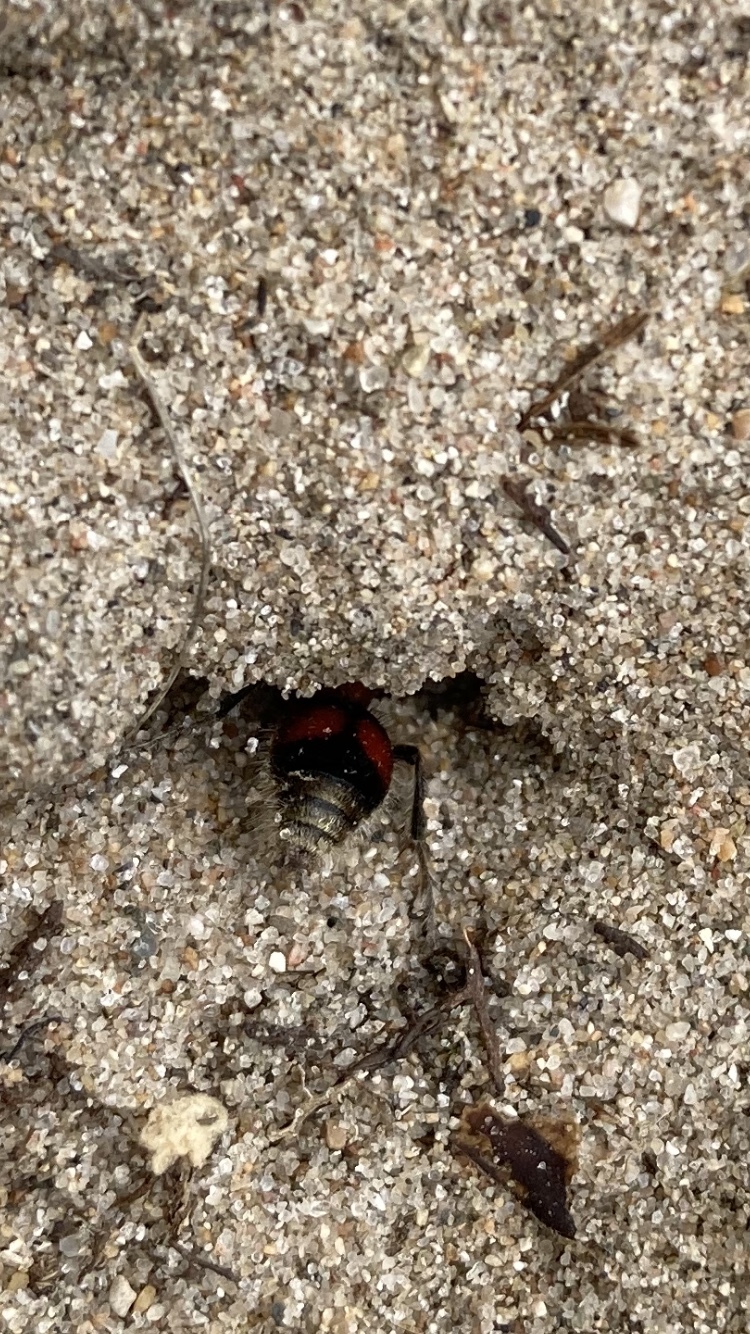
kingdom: Animalia
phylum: Arthropoda
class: Insecta
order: Hymenoptera
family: Mutillidae
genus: Dasymutilla
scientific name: Dasymutilla
